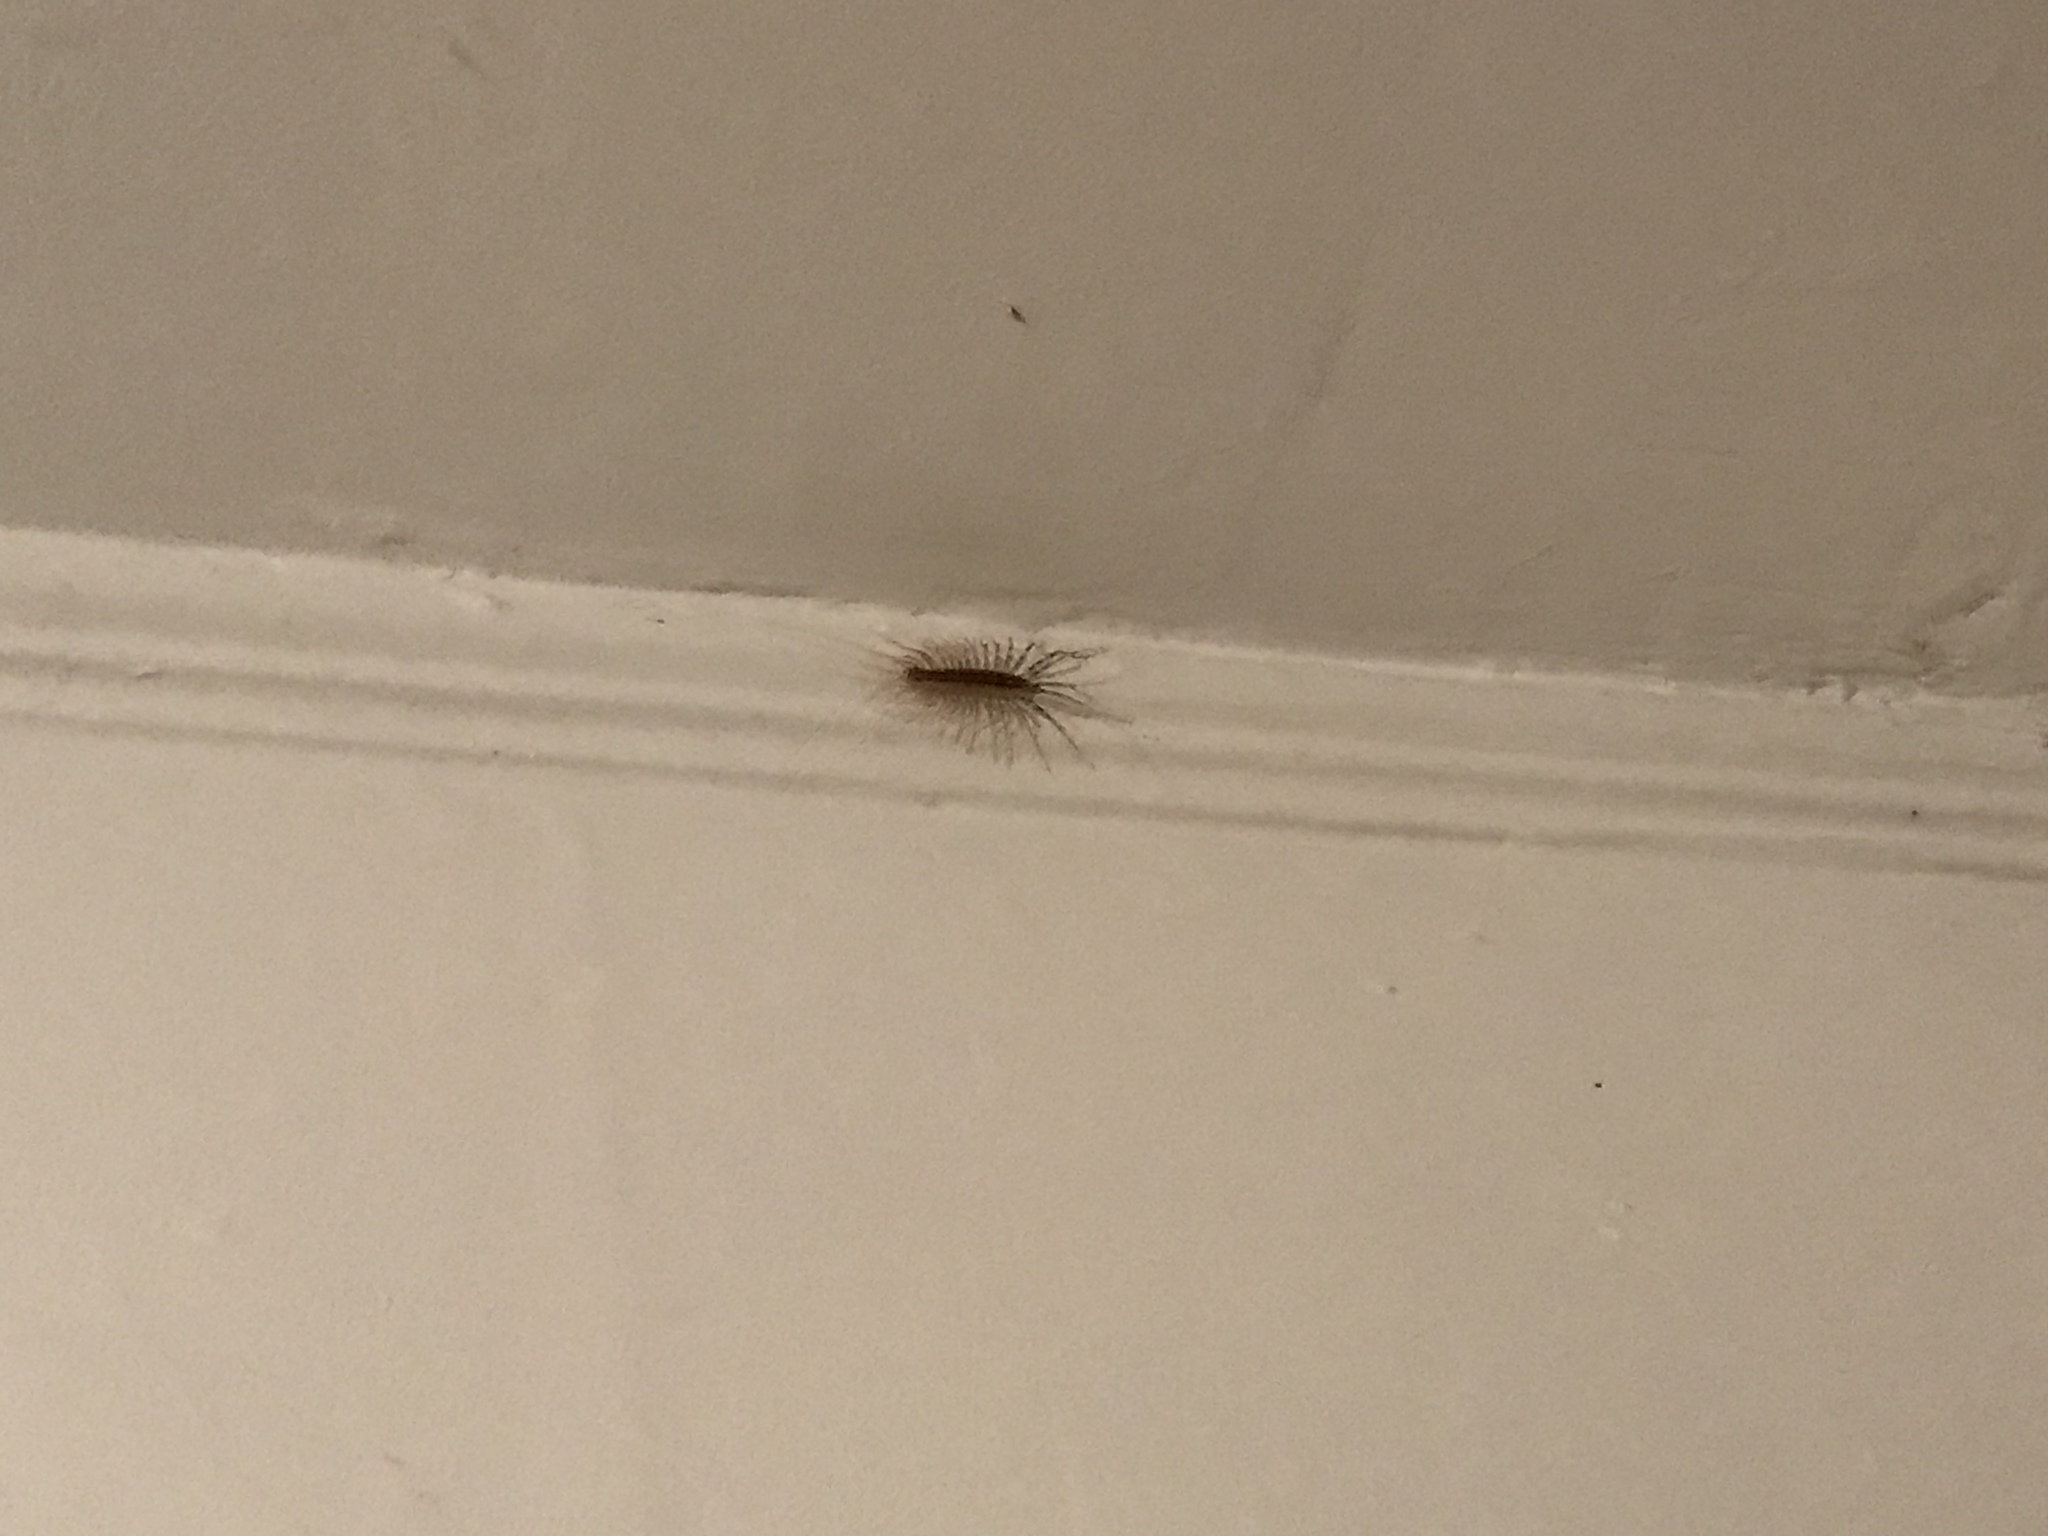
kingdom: Animalia
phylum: Arthropoda
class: Chilopoda
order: Scutigeromorpha
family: Scutigeridae
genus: Scutigera
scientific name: Scutigera coleoptrata
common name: House centipede
